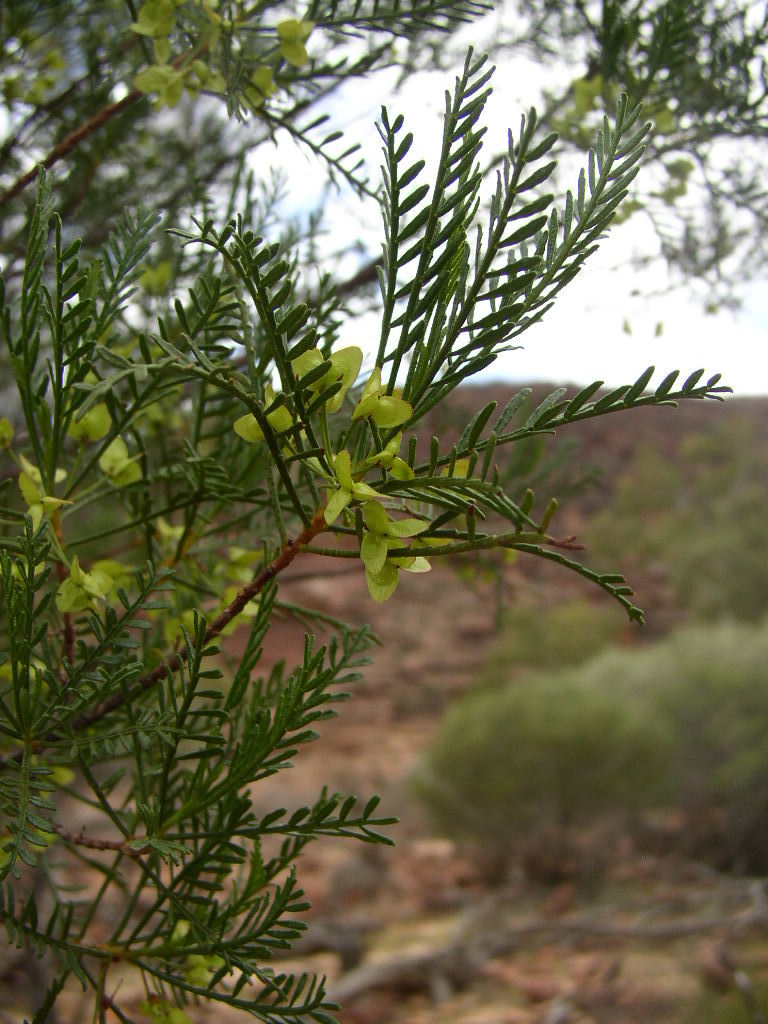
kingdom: Plantae
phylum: Tracheophyta
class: Magnoliopsida
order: Sapindales
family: Sapindaceae
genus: Dodonaea
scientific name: Dodonaea inaequifolia
